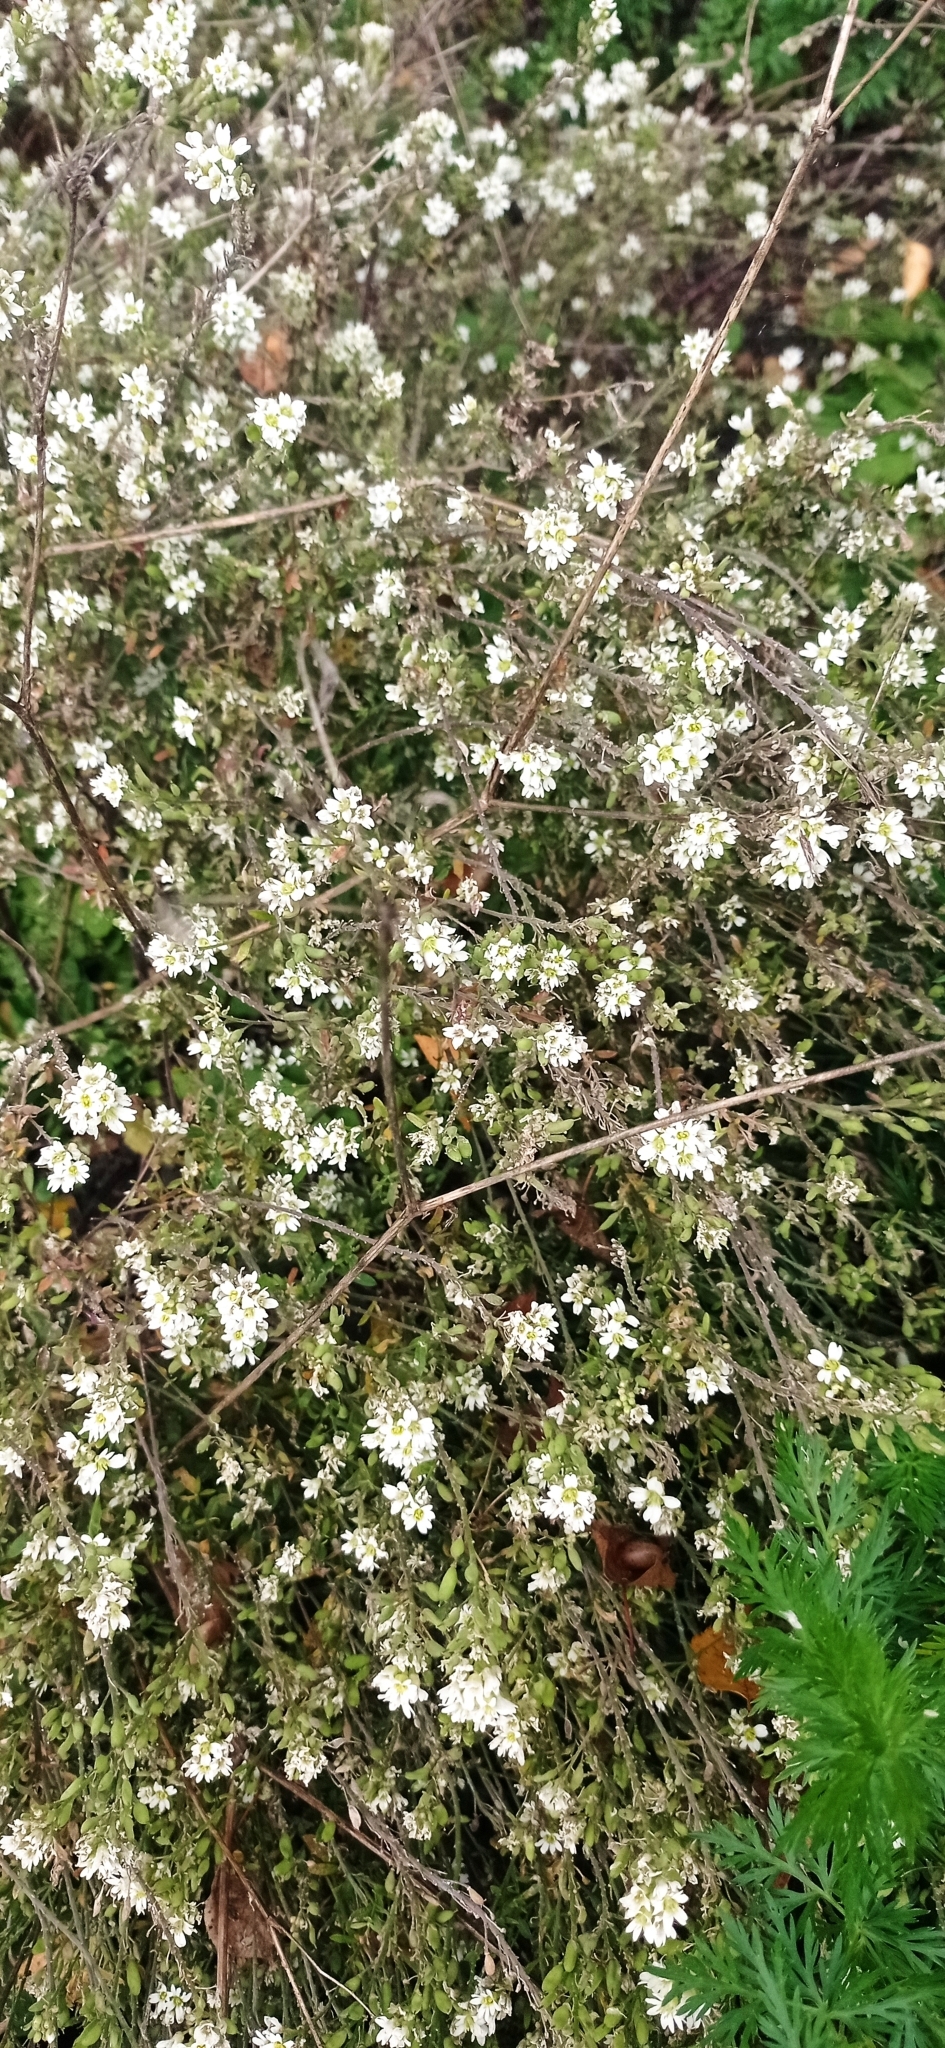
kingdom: Plantae
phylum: Tracheophyta
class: Magnoliopsida
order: Brassicales
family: Brassicaceae
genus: Berteroa
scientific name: Berteroa incana
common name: Hoary alison
